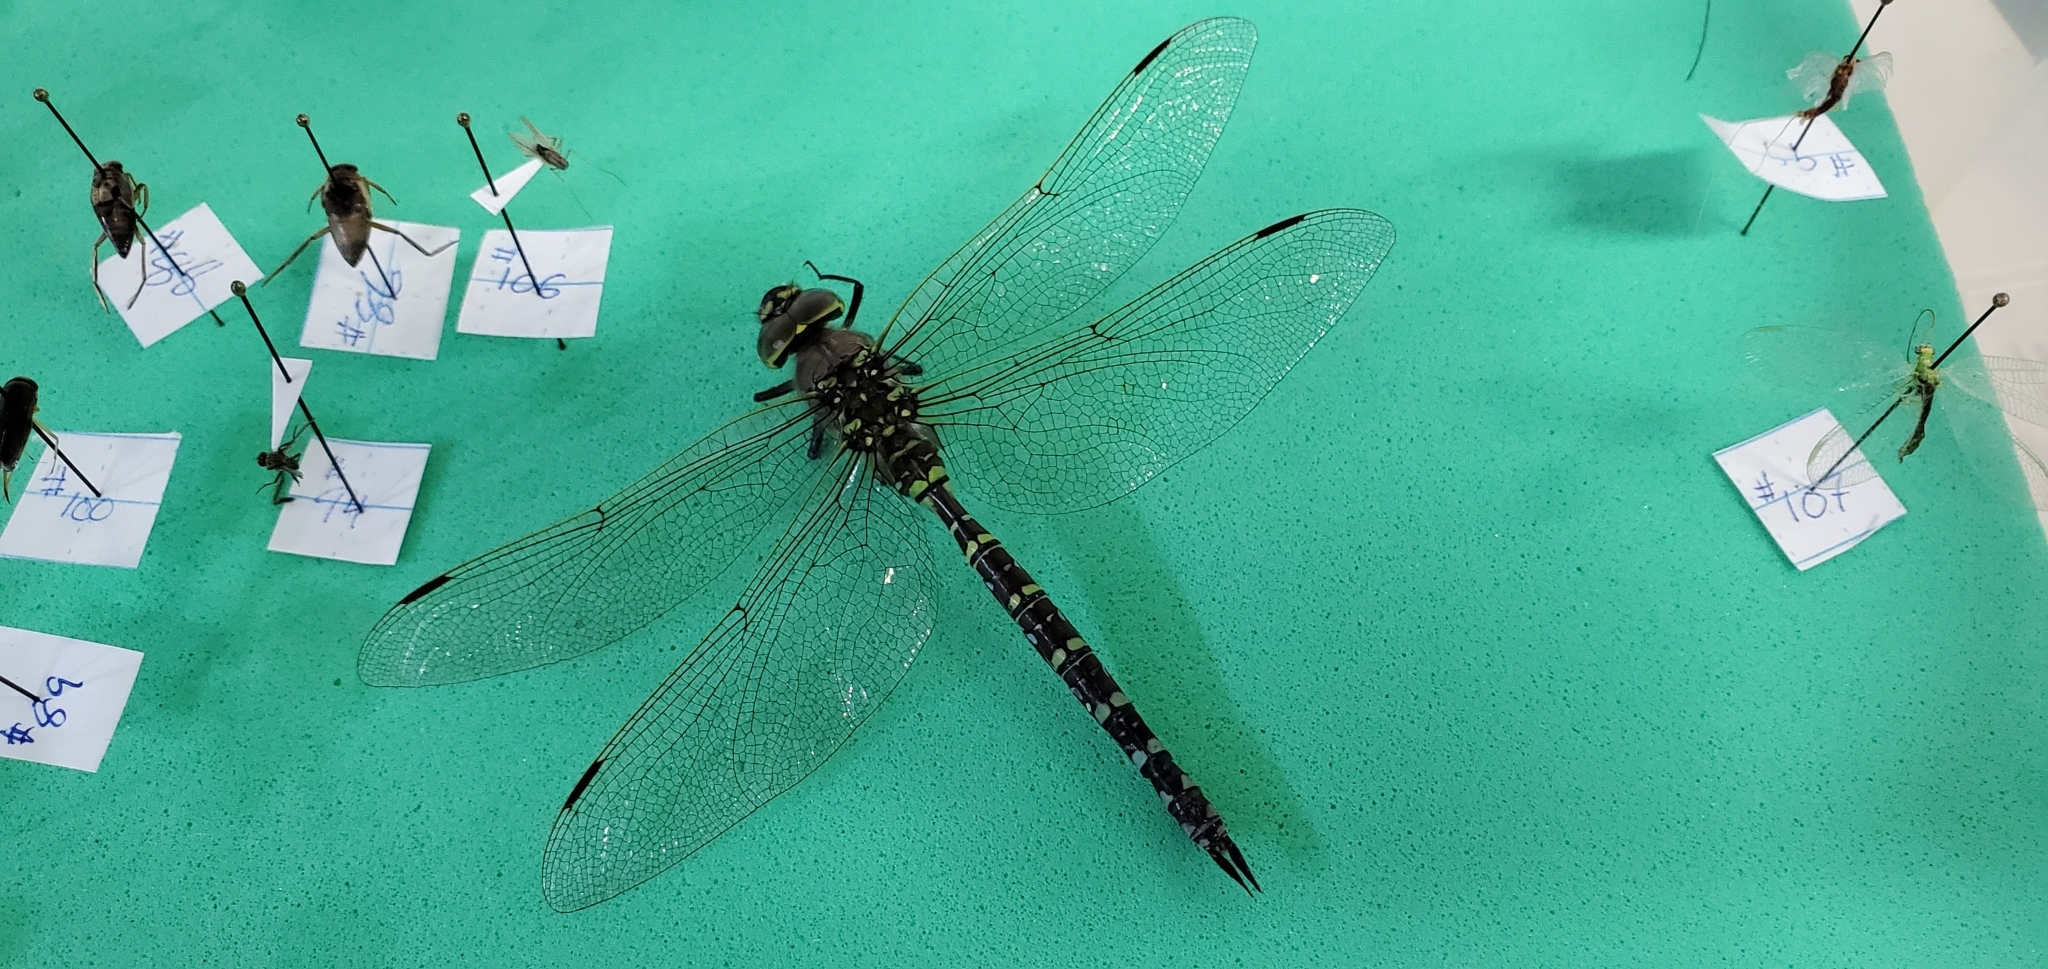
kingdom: Animalia
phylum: Arthropoda
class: Insecta
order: Odonata
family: Aeshnidae
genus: Aeshna
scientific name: Aeshna interrupta
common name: Variable darner
